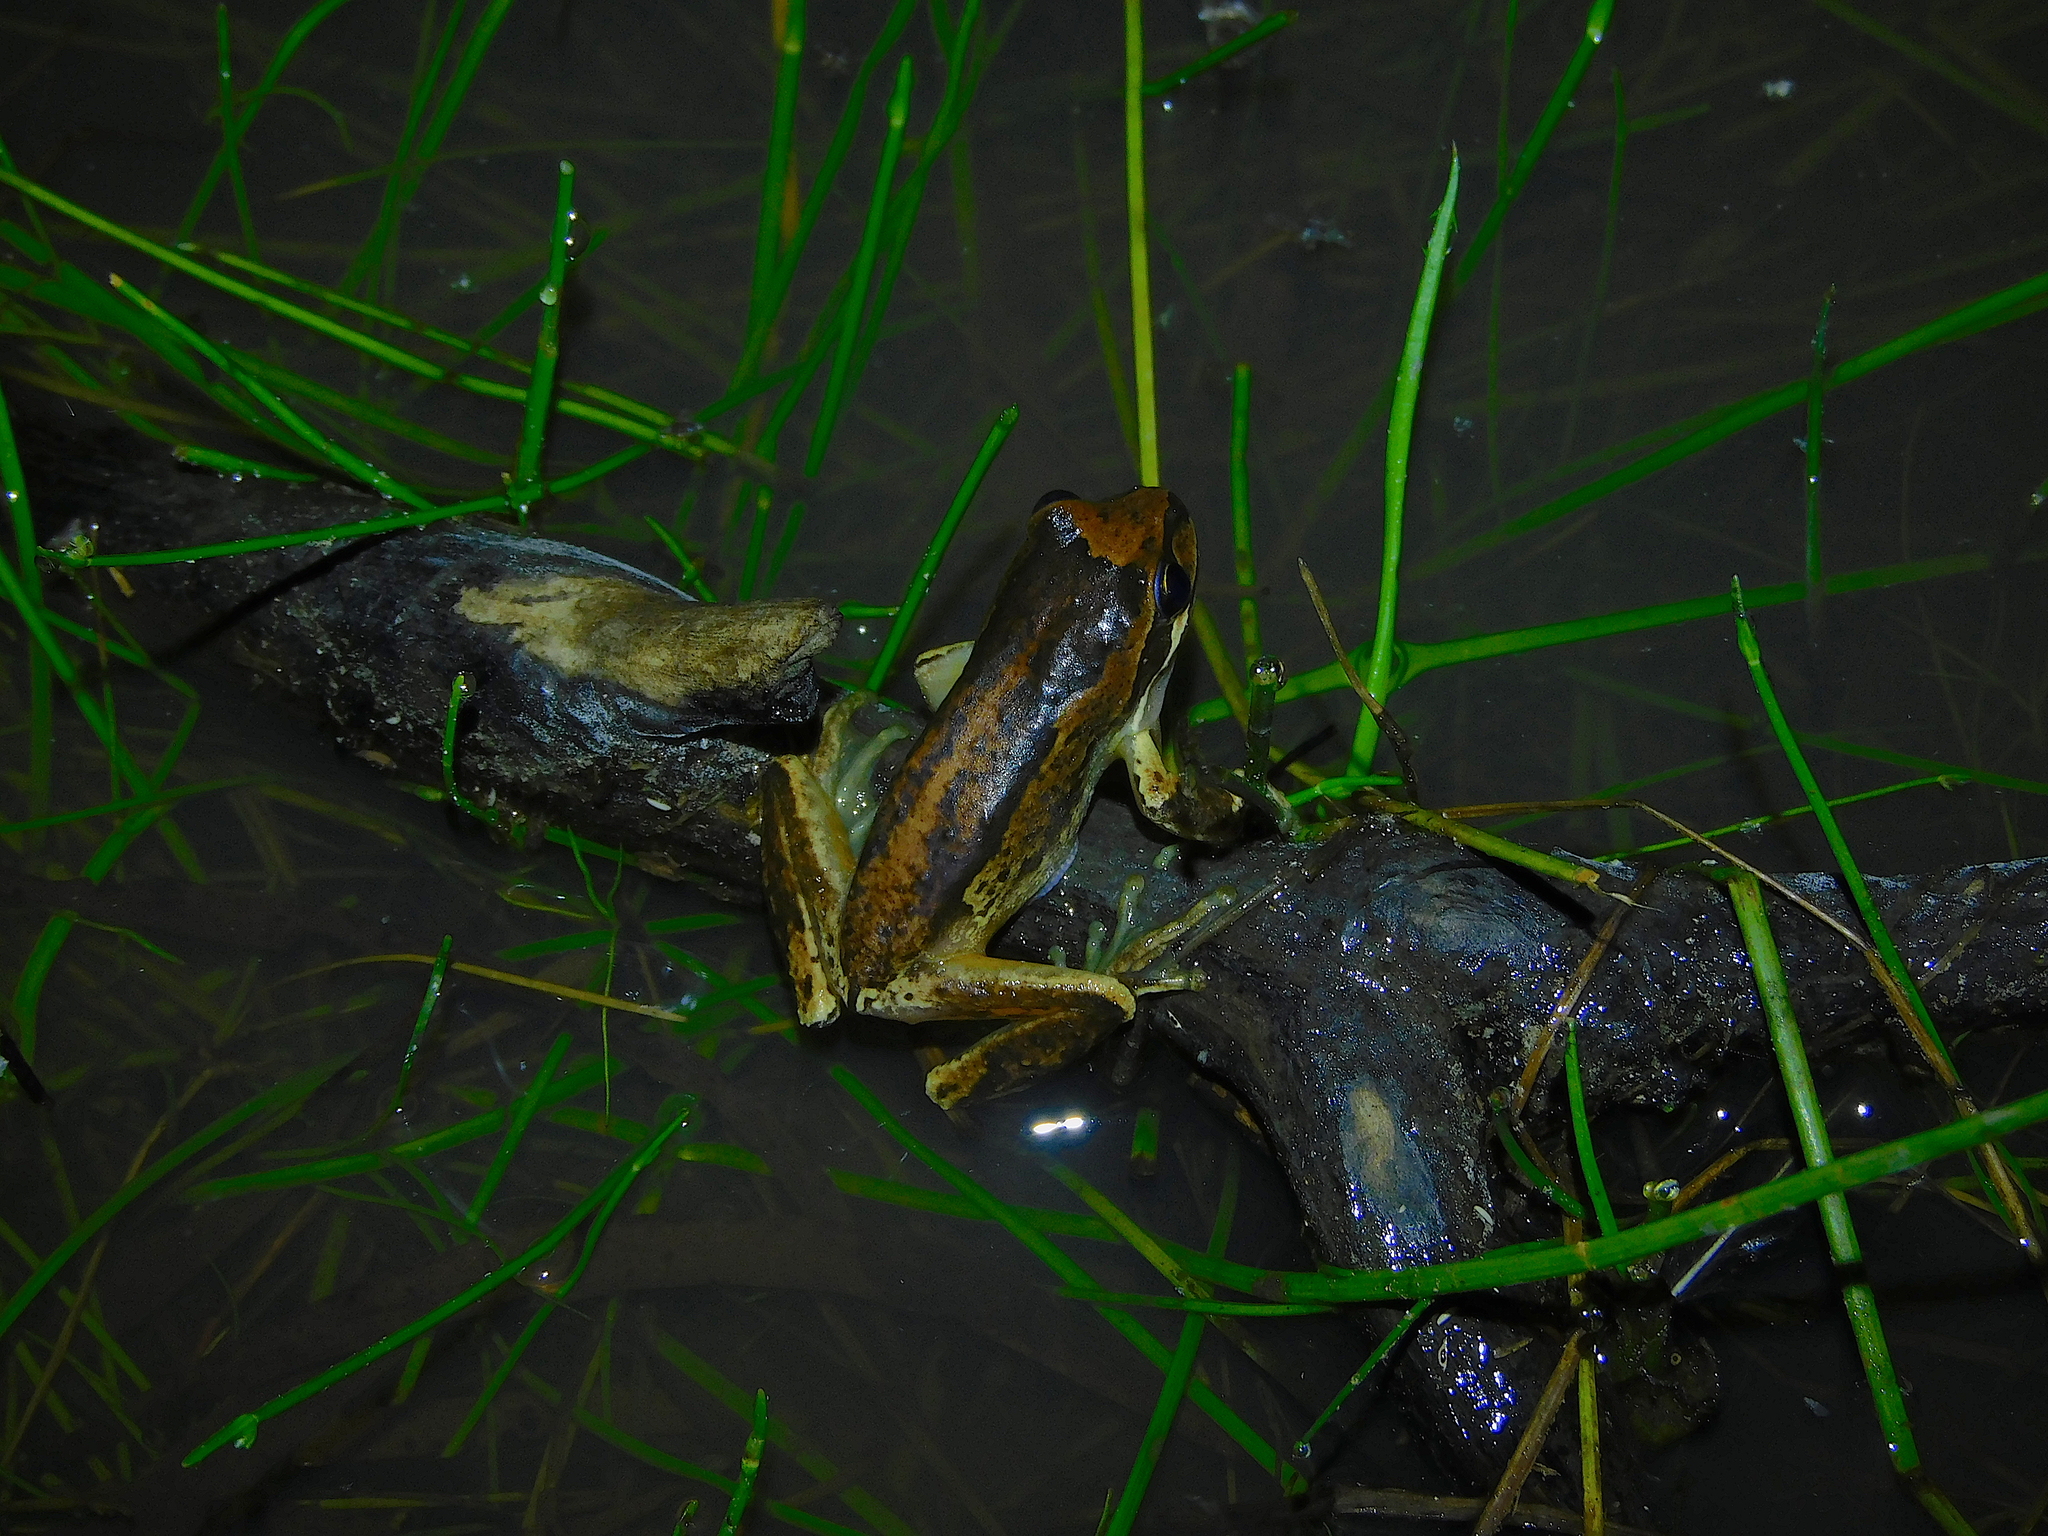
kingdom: Animalia
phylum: Chordata
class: Amphibia
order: Anura
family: Pelodryadidae
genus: Litoria
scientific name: Litoria ewingii
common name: Southern brown tree frog
